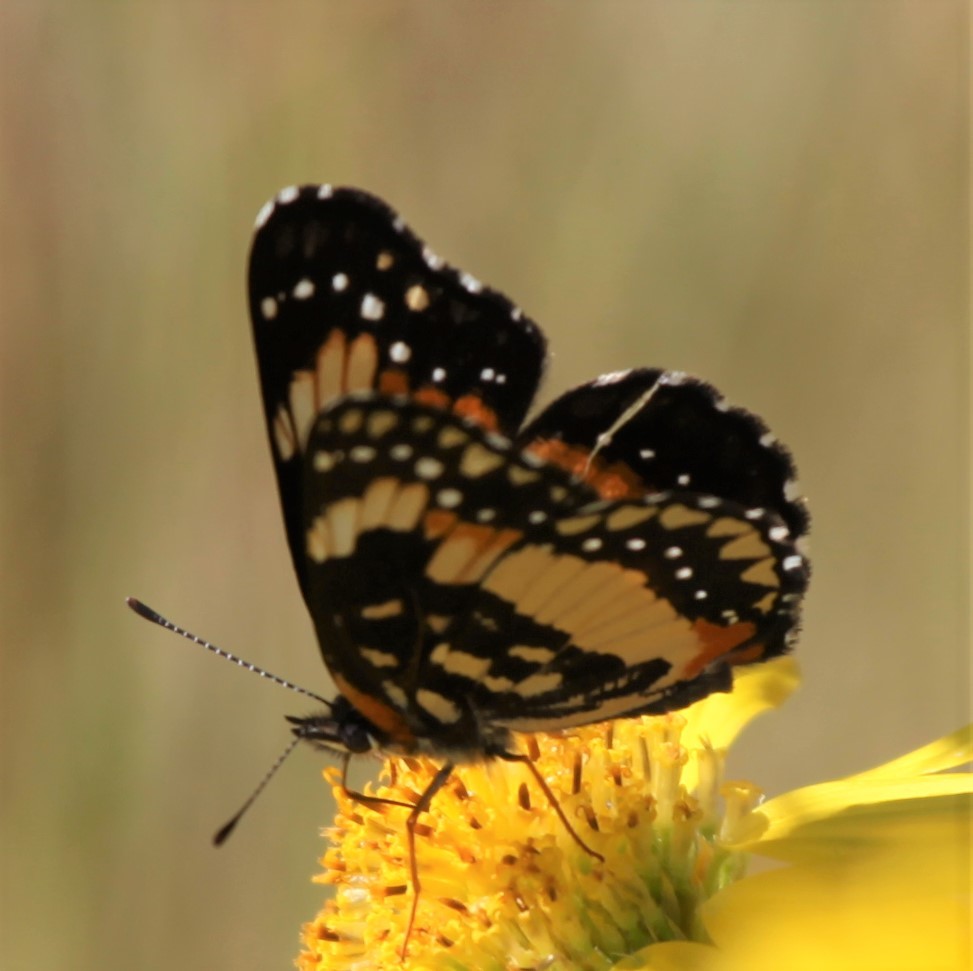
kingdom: Animalia
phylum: Arthropoda
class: Insecta
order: Lepidoptera
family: Nymphalidae
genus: Chlosyne
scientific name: Chlosyne lacinia
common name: Bordered patch
